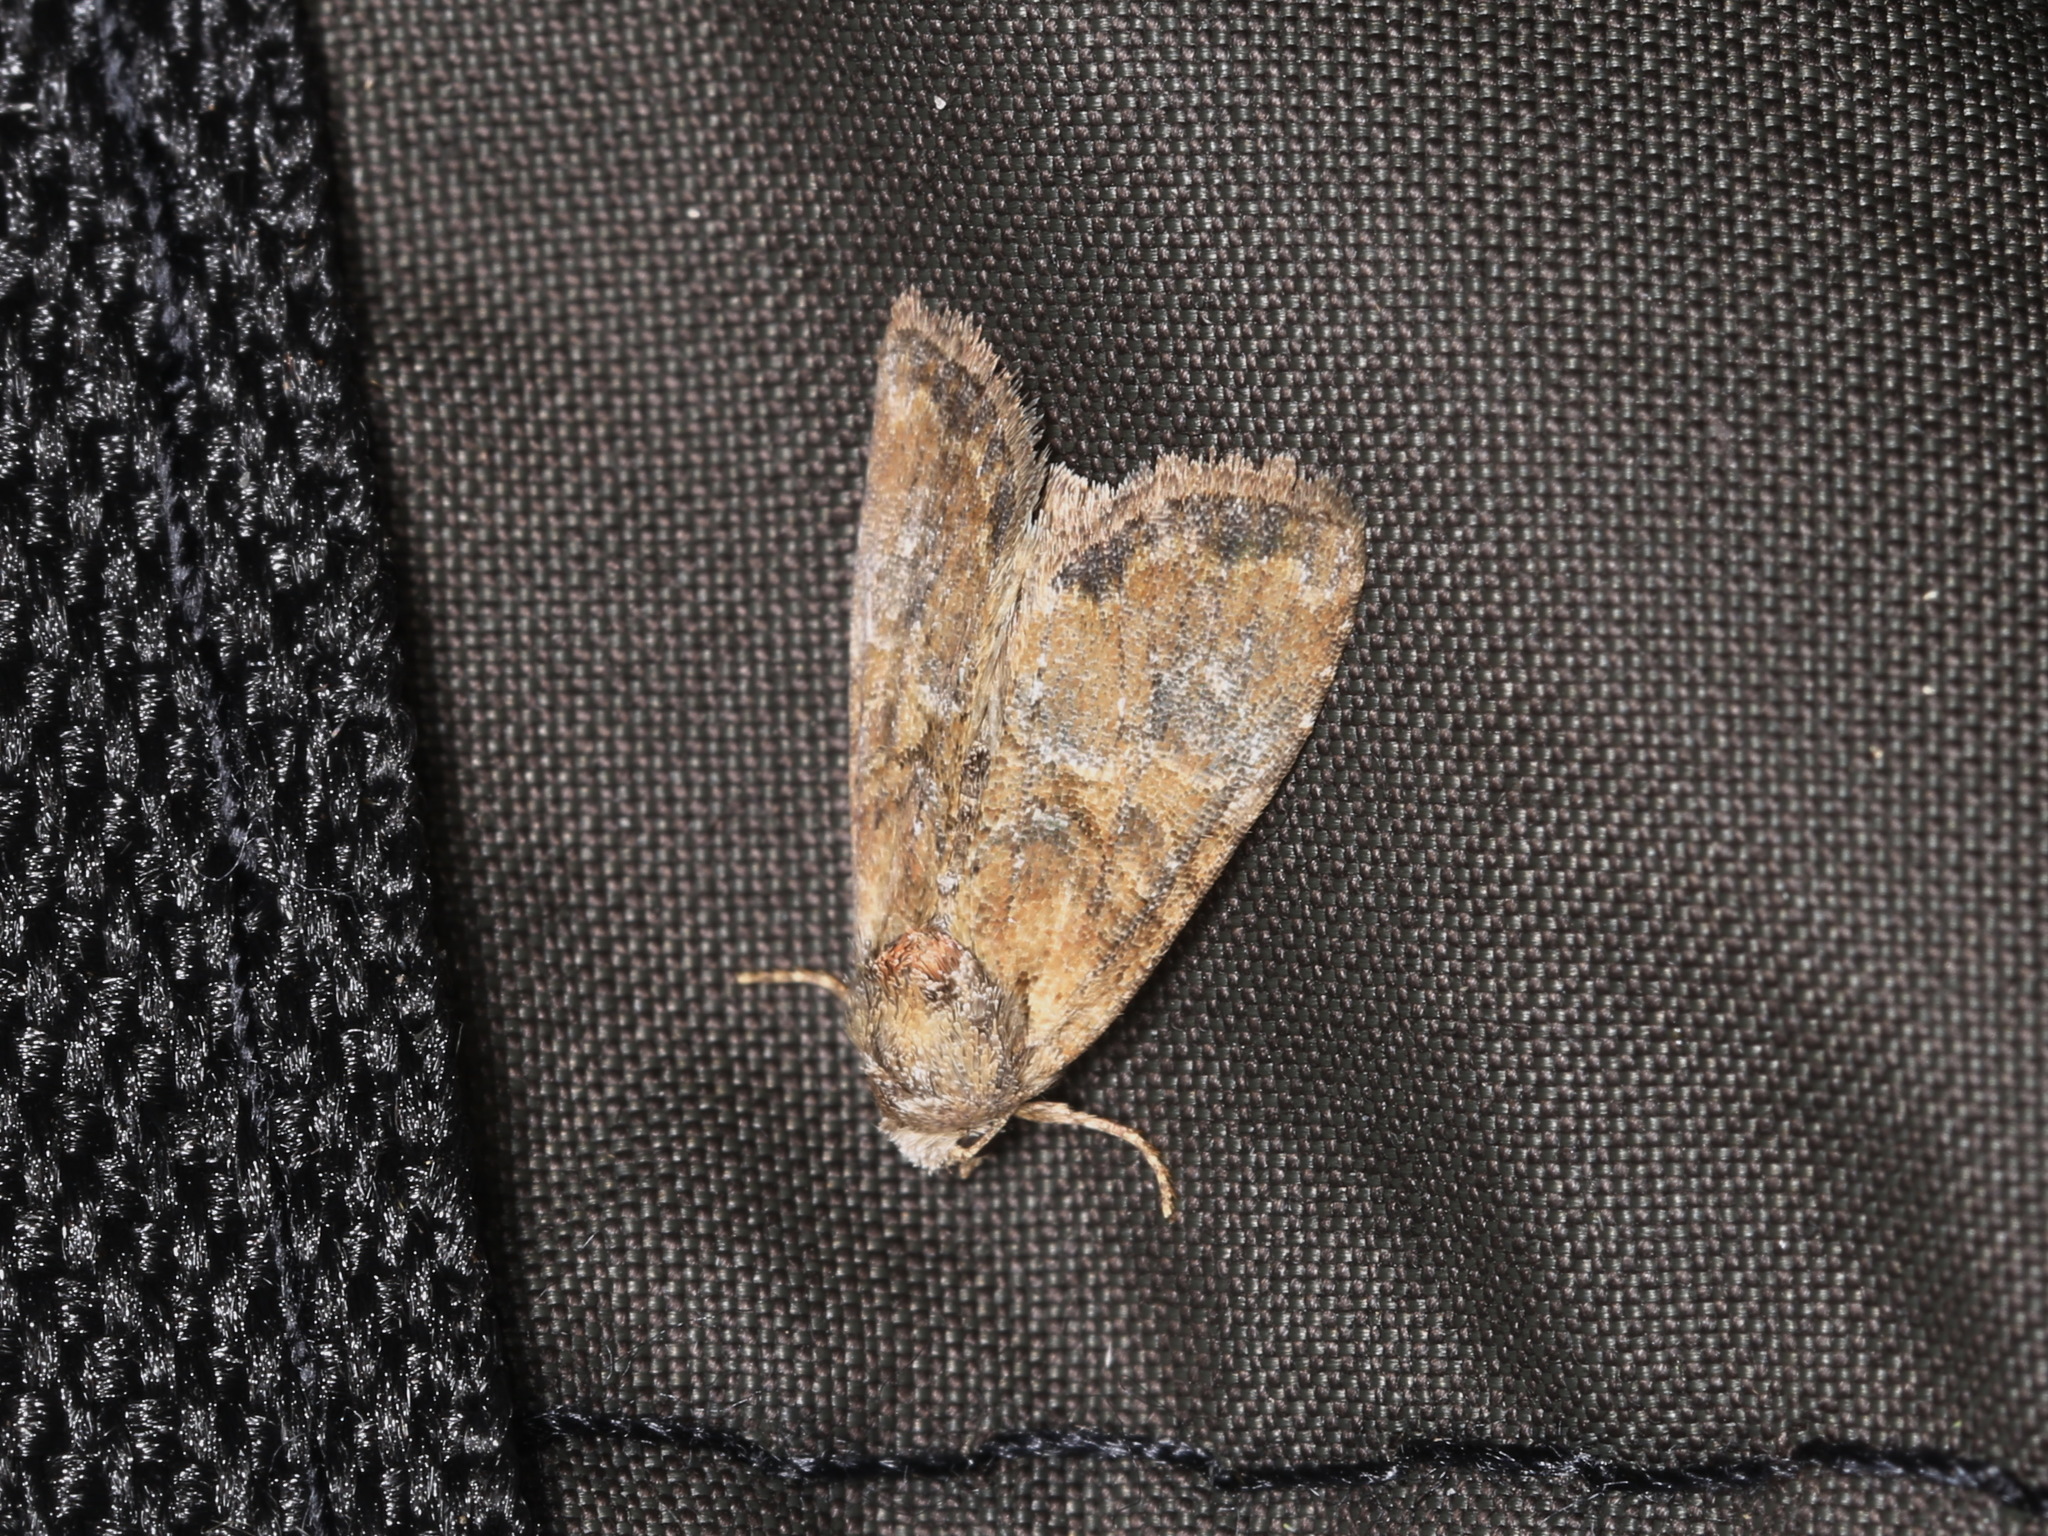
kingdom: Animalia
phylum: Arthropoda
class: Insecta
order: Lepidoptera
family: Noctuidae
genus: Mesoligia
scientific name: Mesoligia furuncula
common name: Cloaked minor
